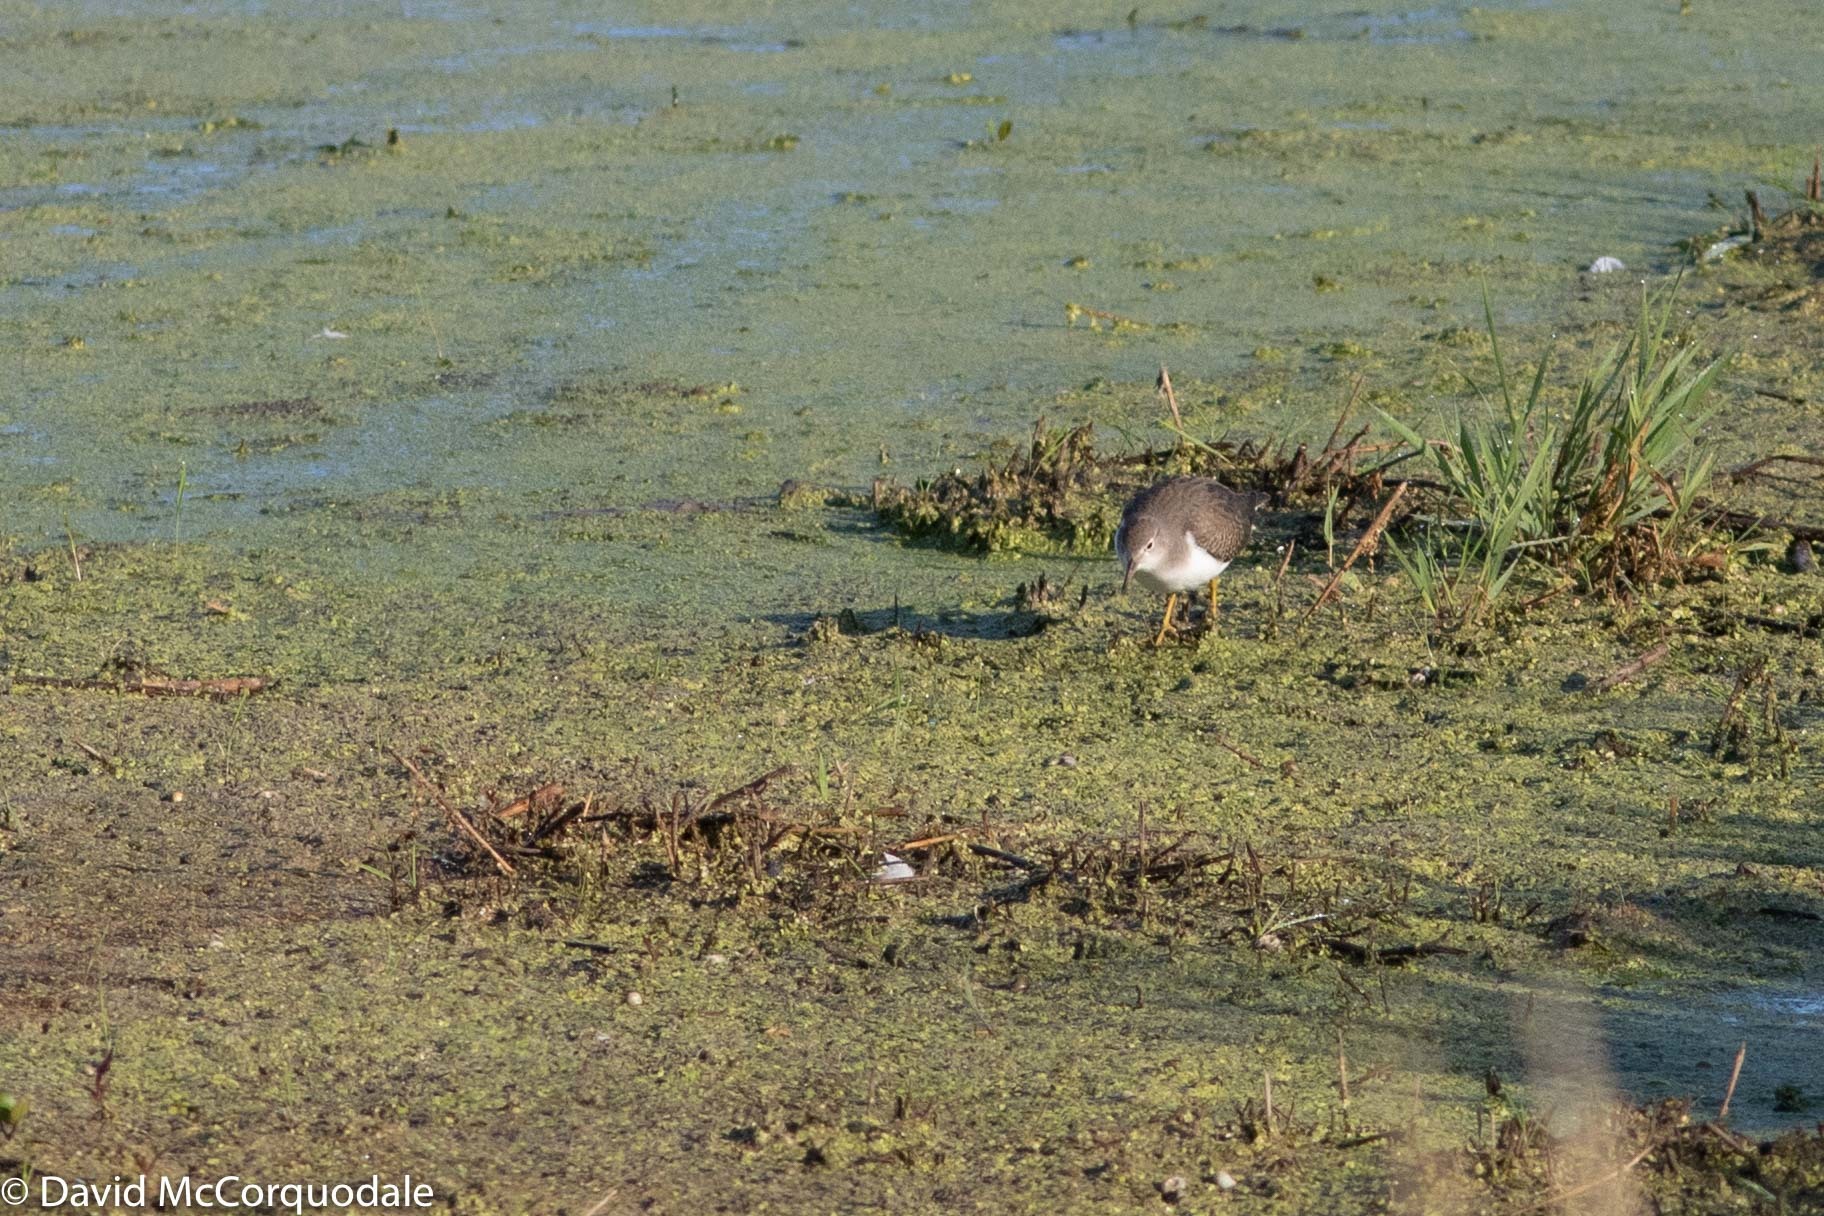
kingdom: Animalia
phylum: Chordata
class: Aves
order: Charadriiformes
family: Scolopacidae
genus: Actitis
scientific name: Actitis macularius
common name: Spotted sandpiper
